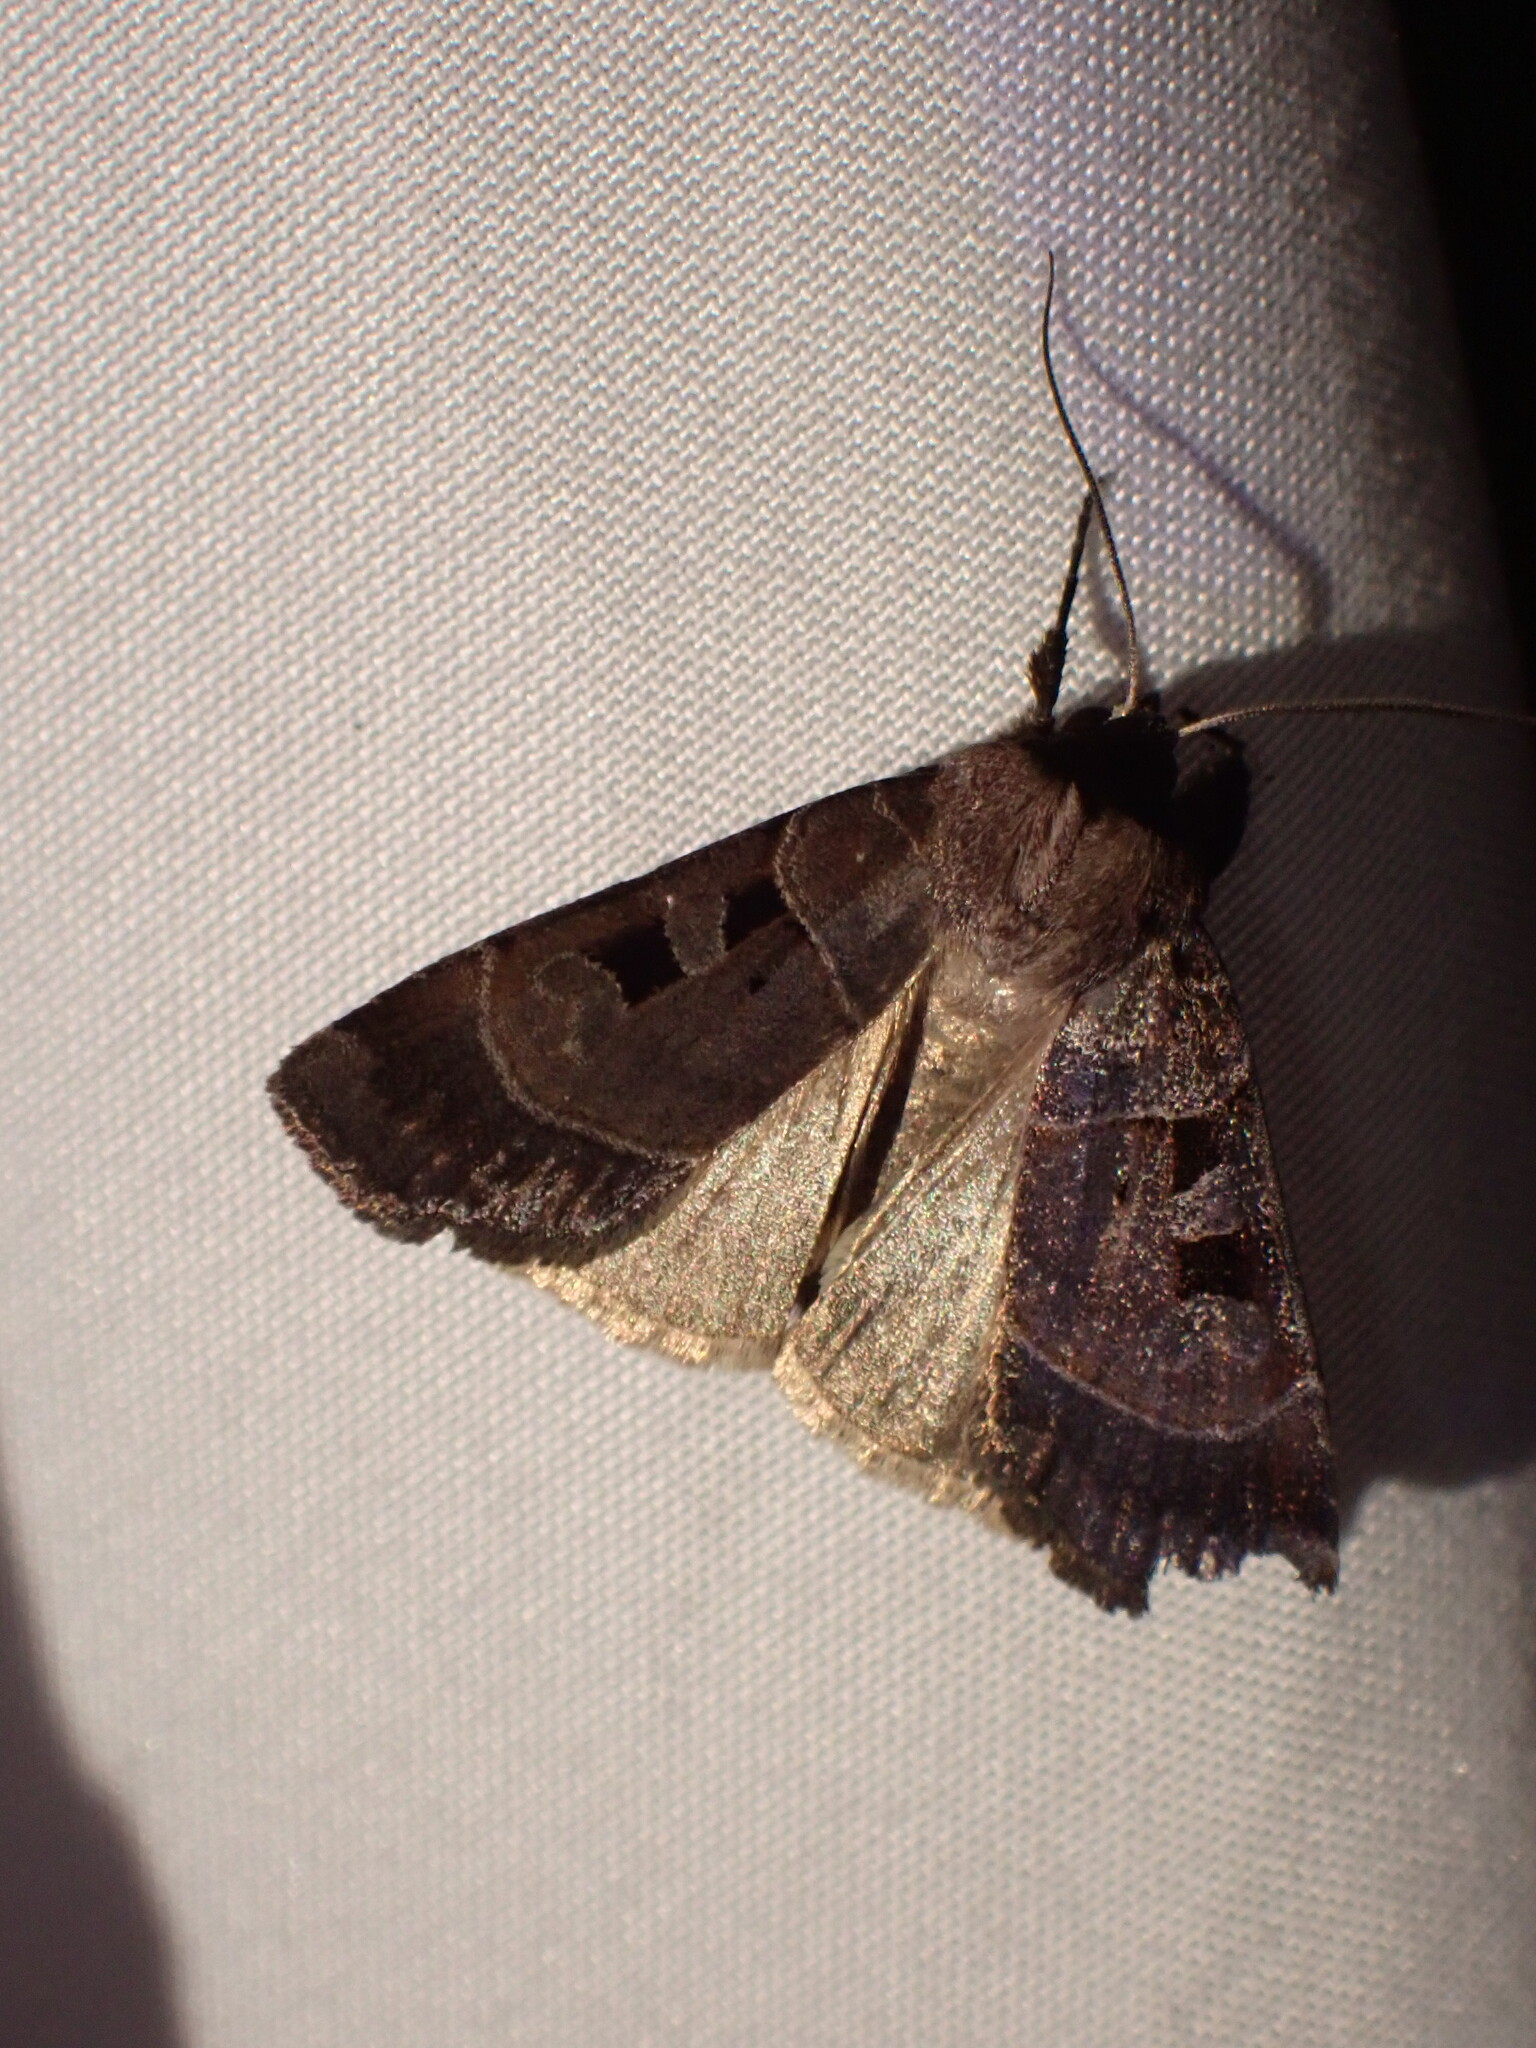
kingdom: Animalia
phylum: Arthropoda
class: Insecta
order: Lepidoptera
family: Noctuidae
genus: Agnorisma
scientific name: Agnorisma bugrai
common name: Collared dart
